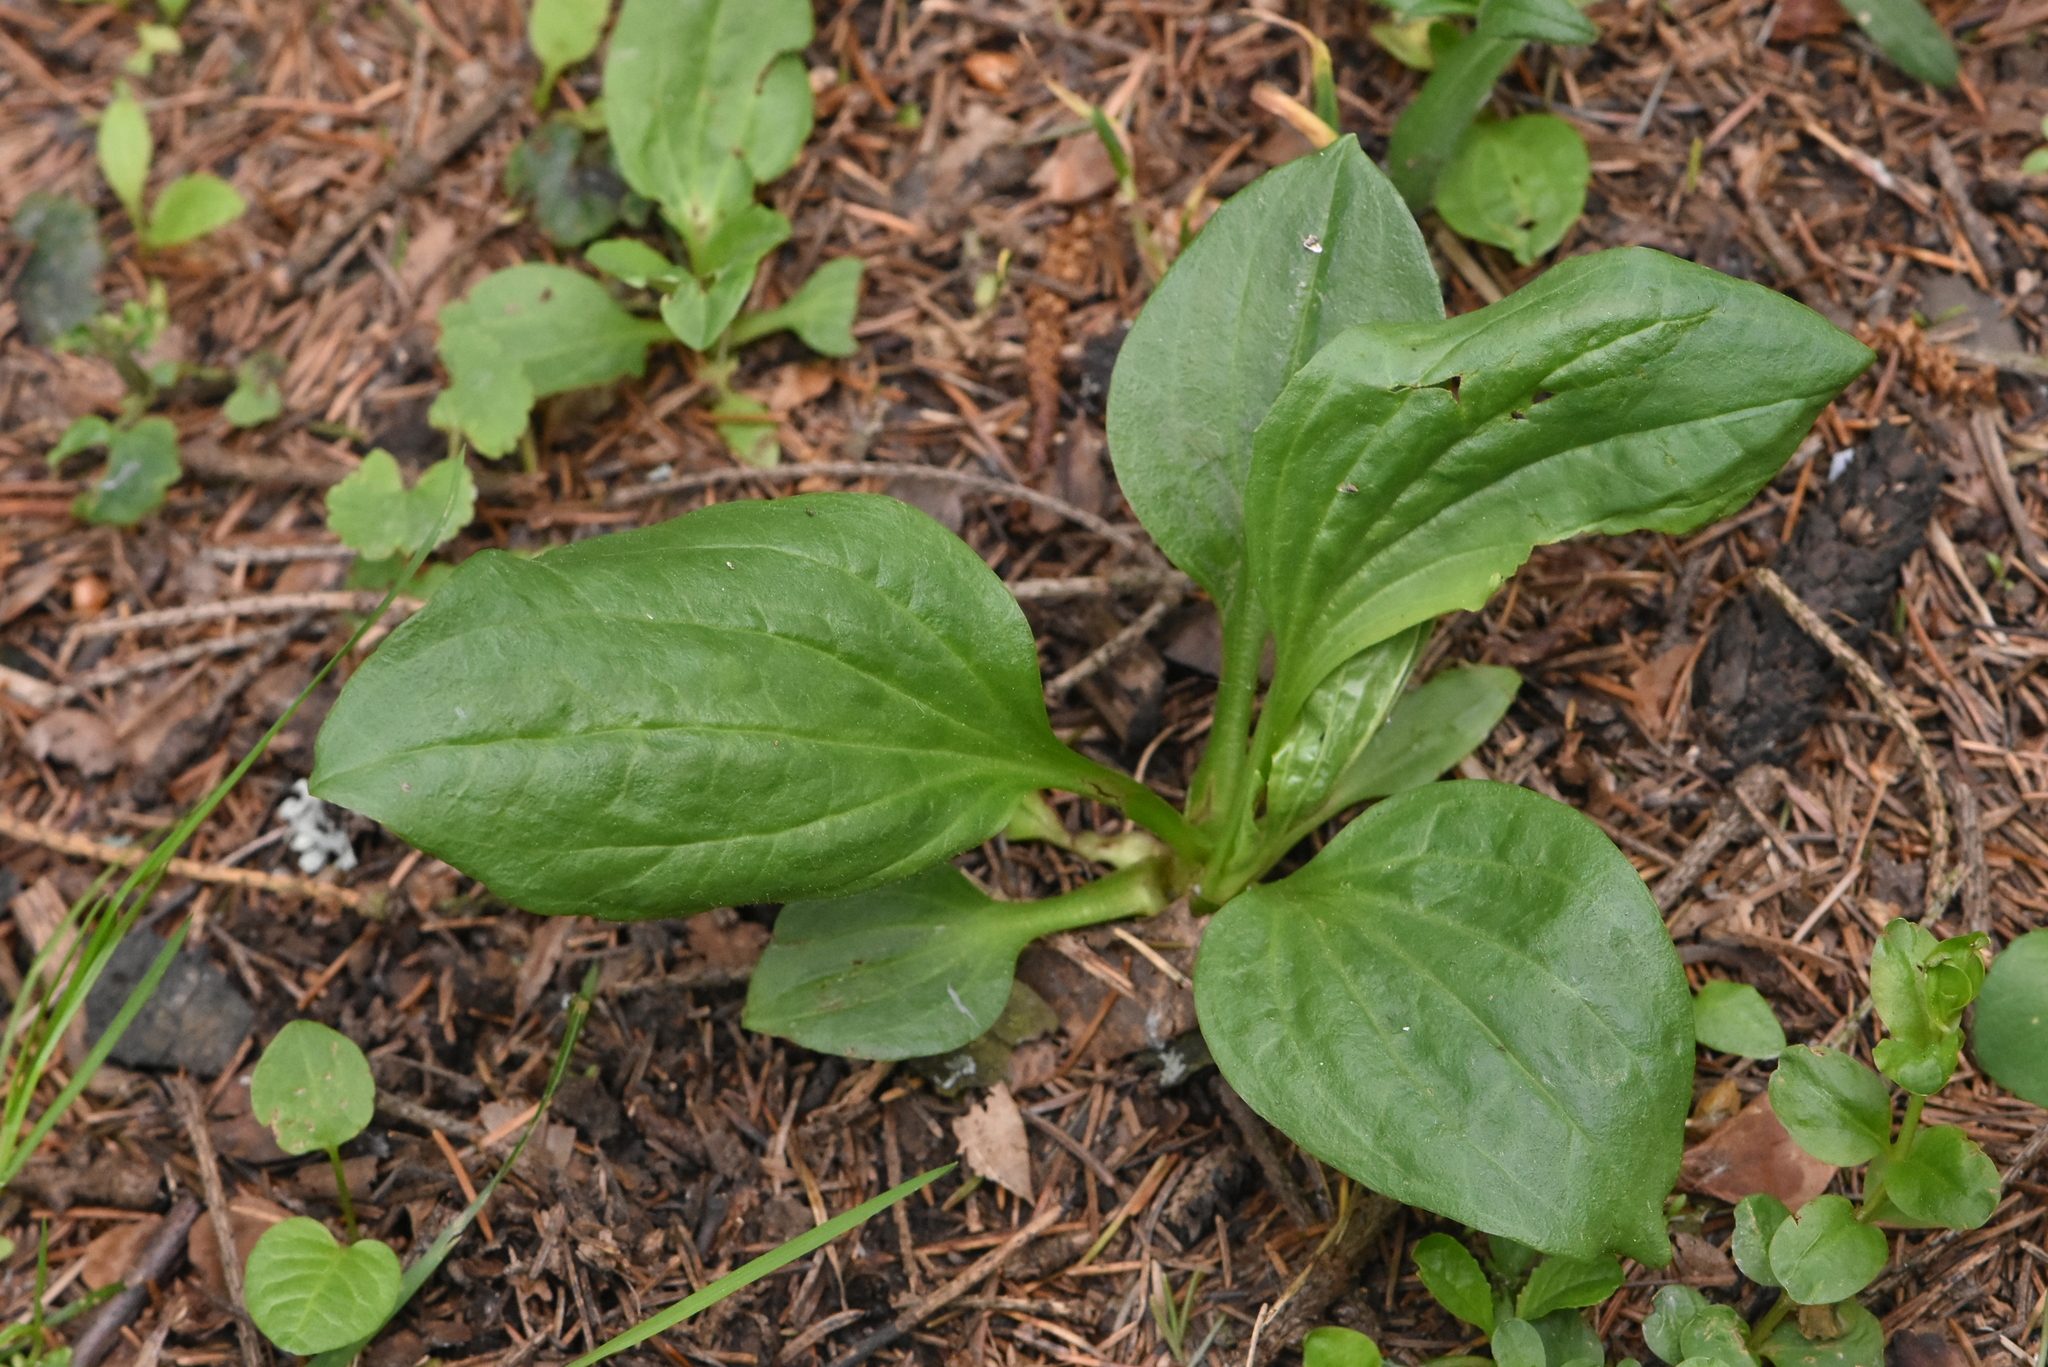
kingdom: Plantae
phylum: Tracheophyta
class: Magnoliopsida
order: Lamiales
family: Plantaginaceae
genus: Plantago
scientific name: Plantago major
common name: Common plantain
